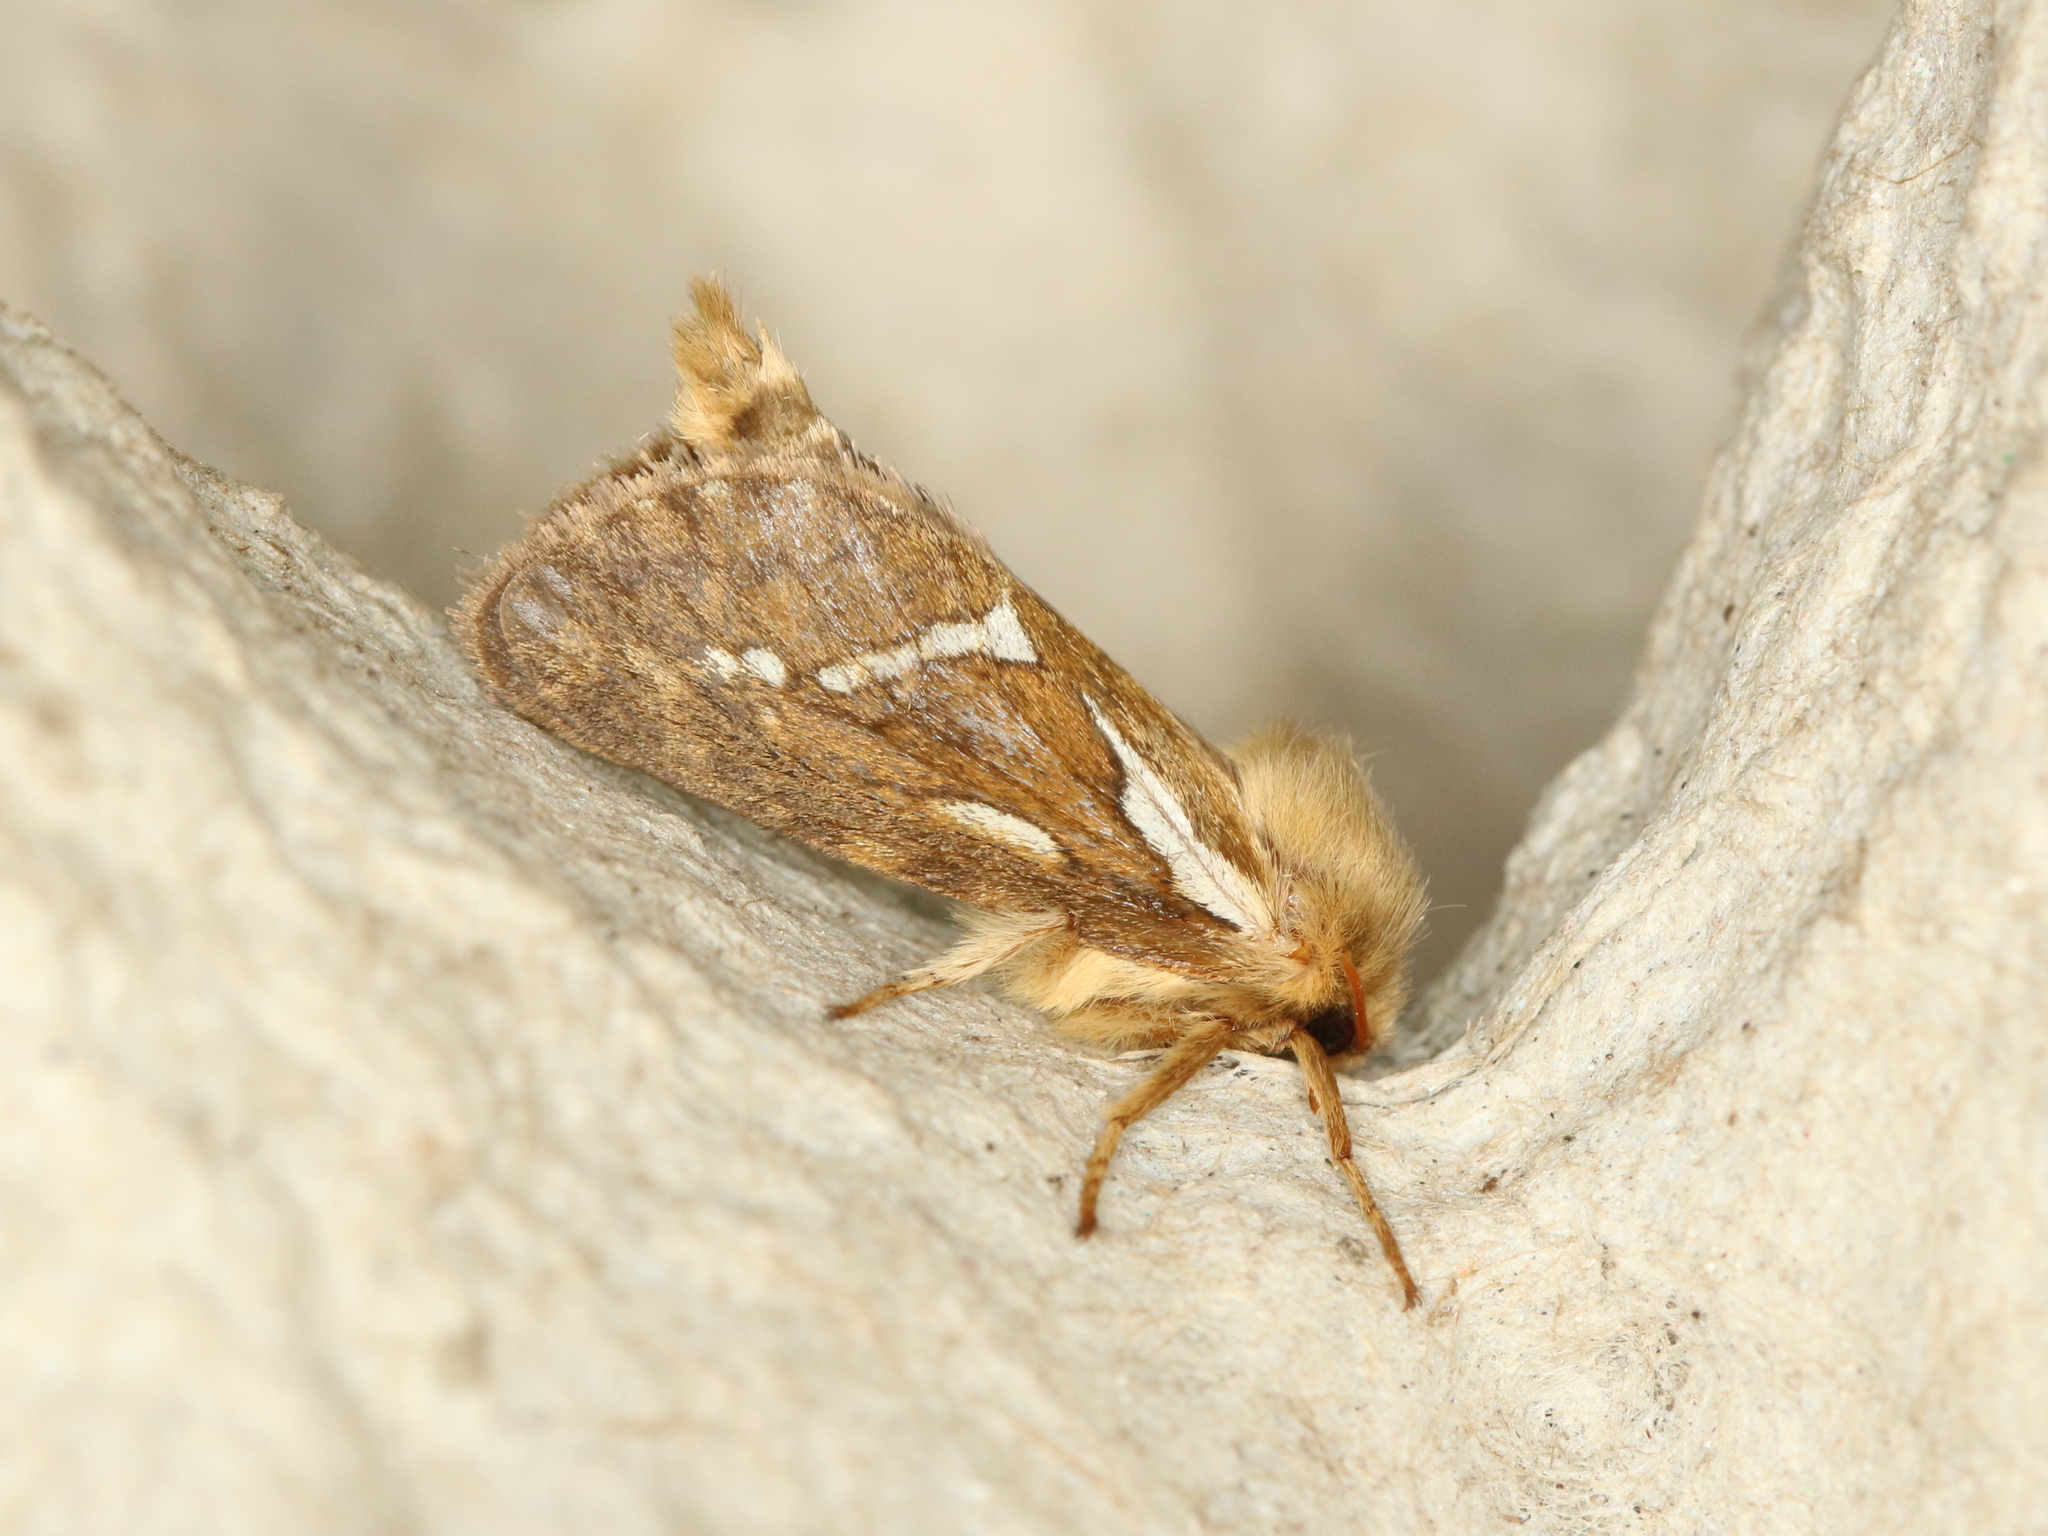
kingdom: Animalia
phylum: Arthropoda
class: Insecta
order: Lepidoptera
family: Hepialidae
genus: Korscheltellus
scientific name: Korscheltellus lupulina
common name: Common swift
